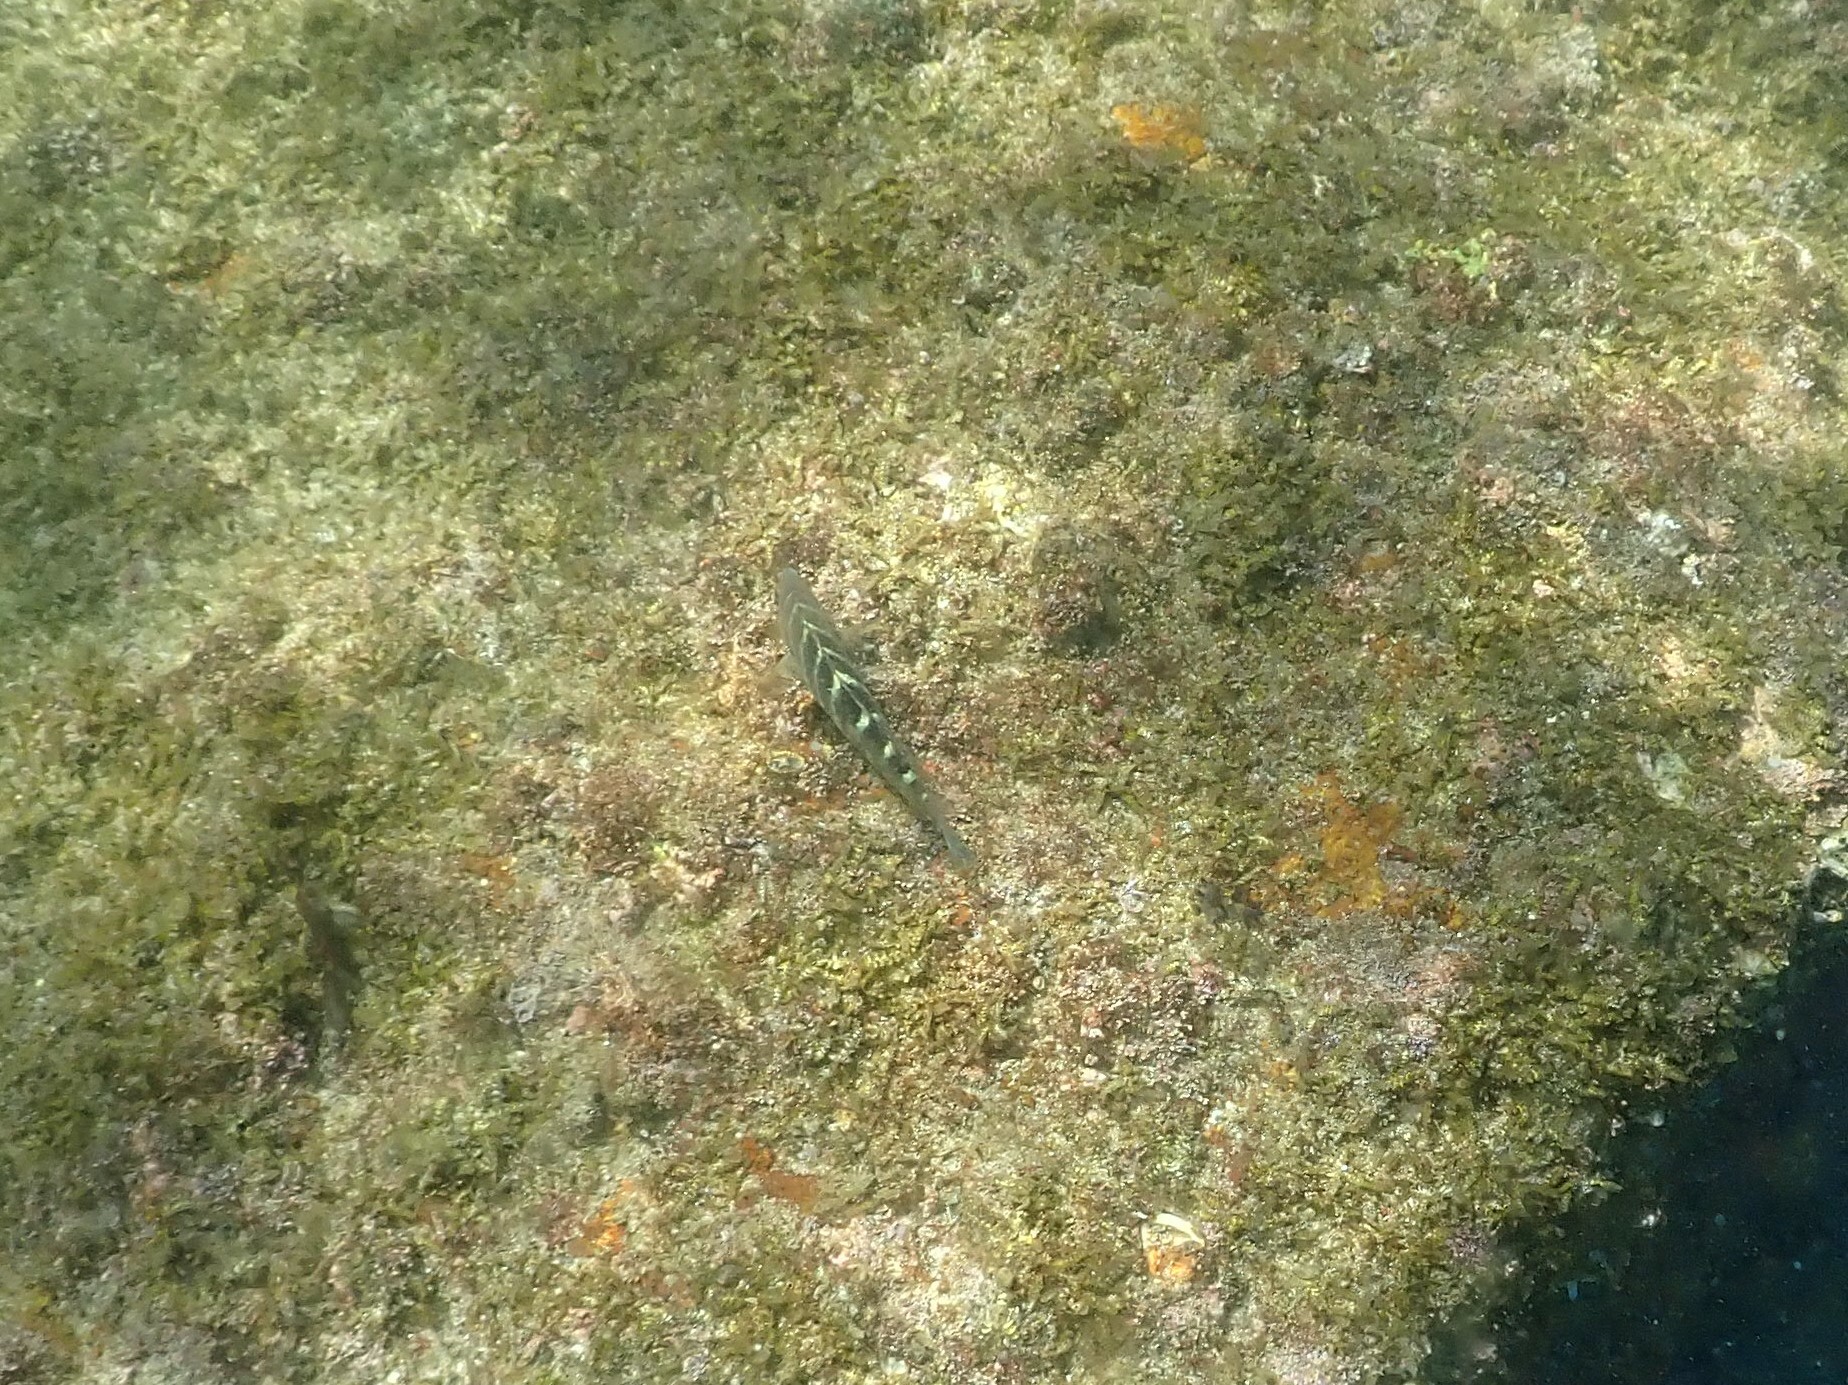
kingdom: Animalia
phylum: Chordata
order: Perciformes
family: Labridae
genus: Halichoeres
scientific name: Halichoeres notospilus
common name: Banded wrasse
